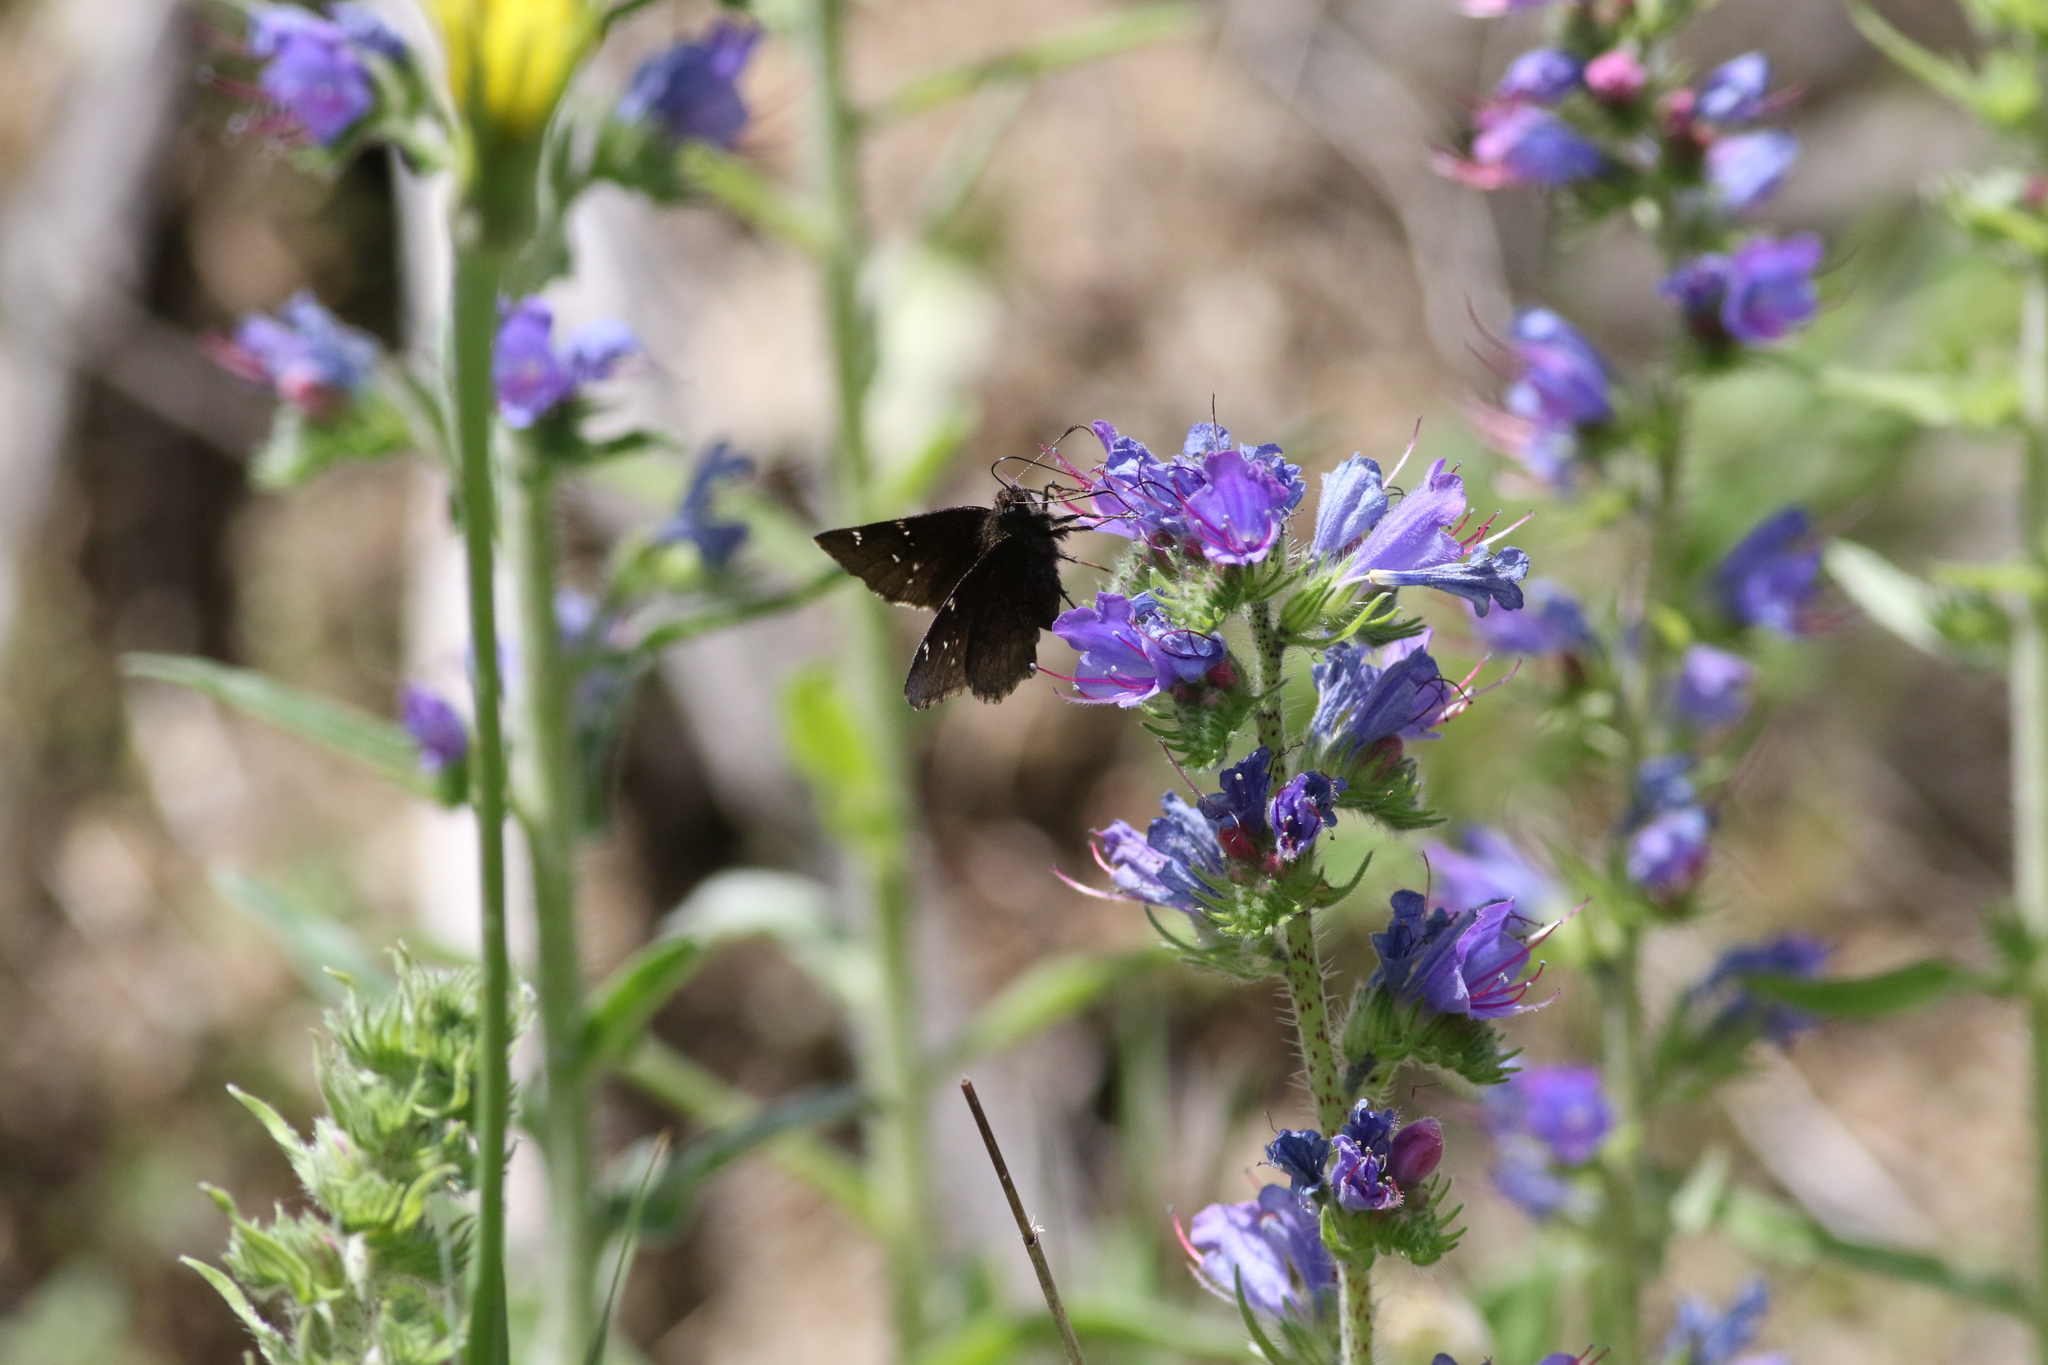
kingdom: Animalia
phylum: Arthropoda
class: Insecta
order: Lepidoptera
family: Hesperiidae
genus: Thorybes
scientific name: Thorybes pylades
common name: Northern cloudywing
